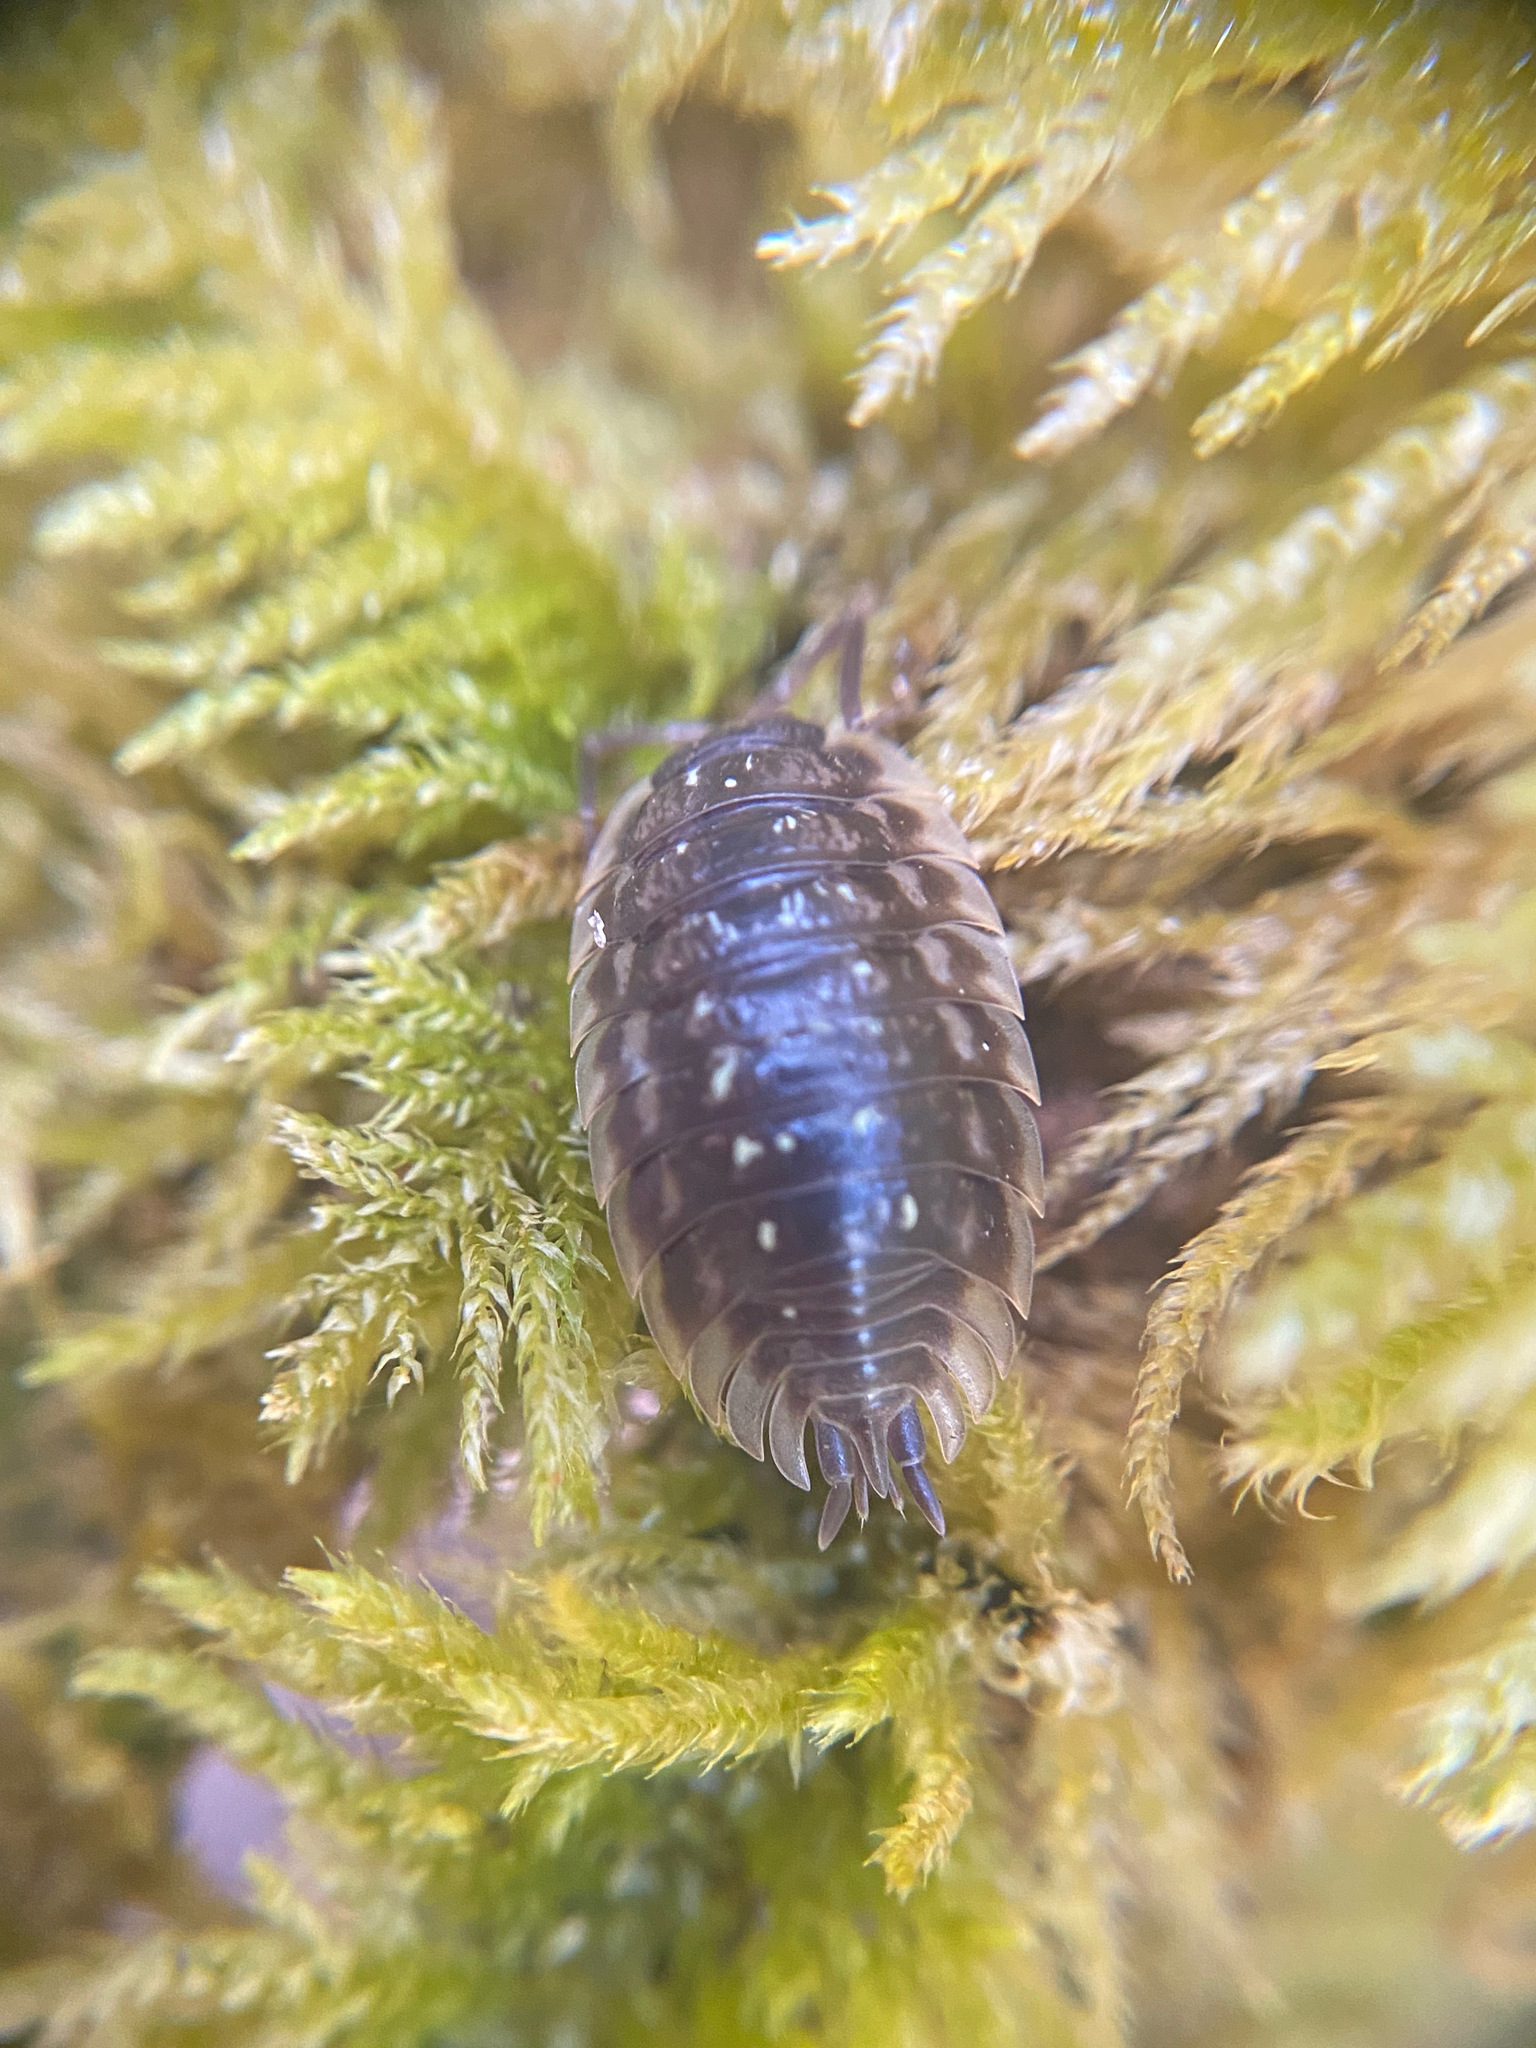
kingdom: Animalia
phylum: Arthropoda
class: Malacostraca
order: Isopoda
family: Oniscidae
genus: Oniscus
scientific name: Oniscus asellus
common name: Common shiny woodlouse
